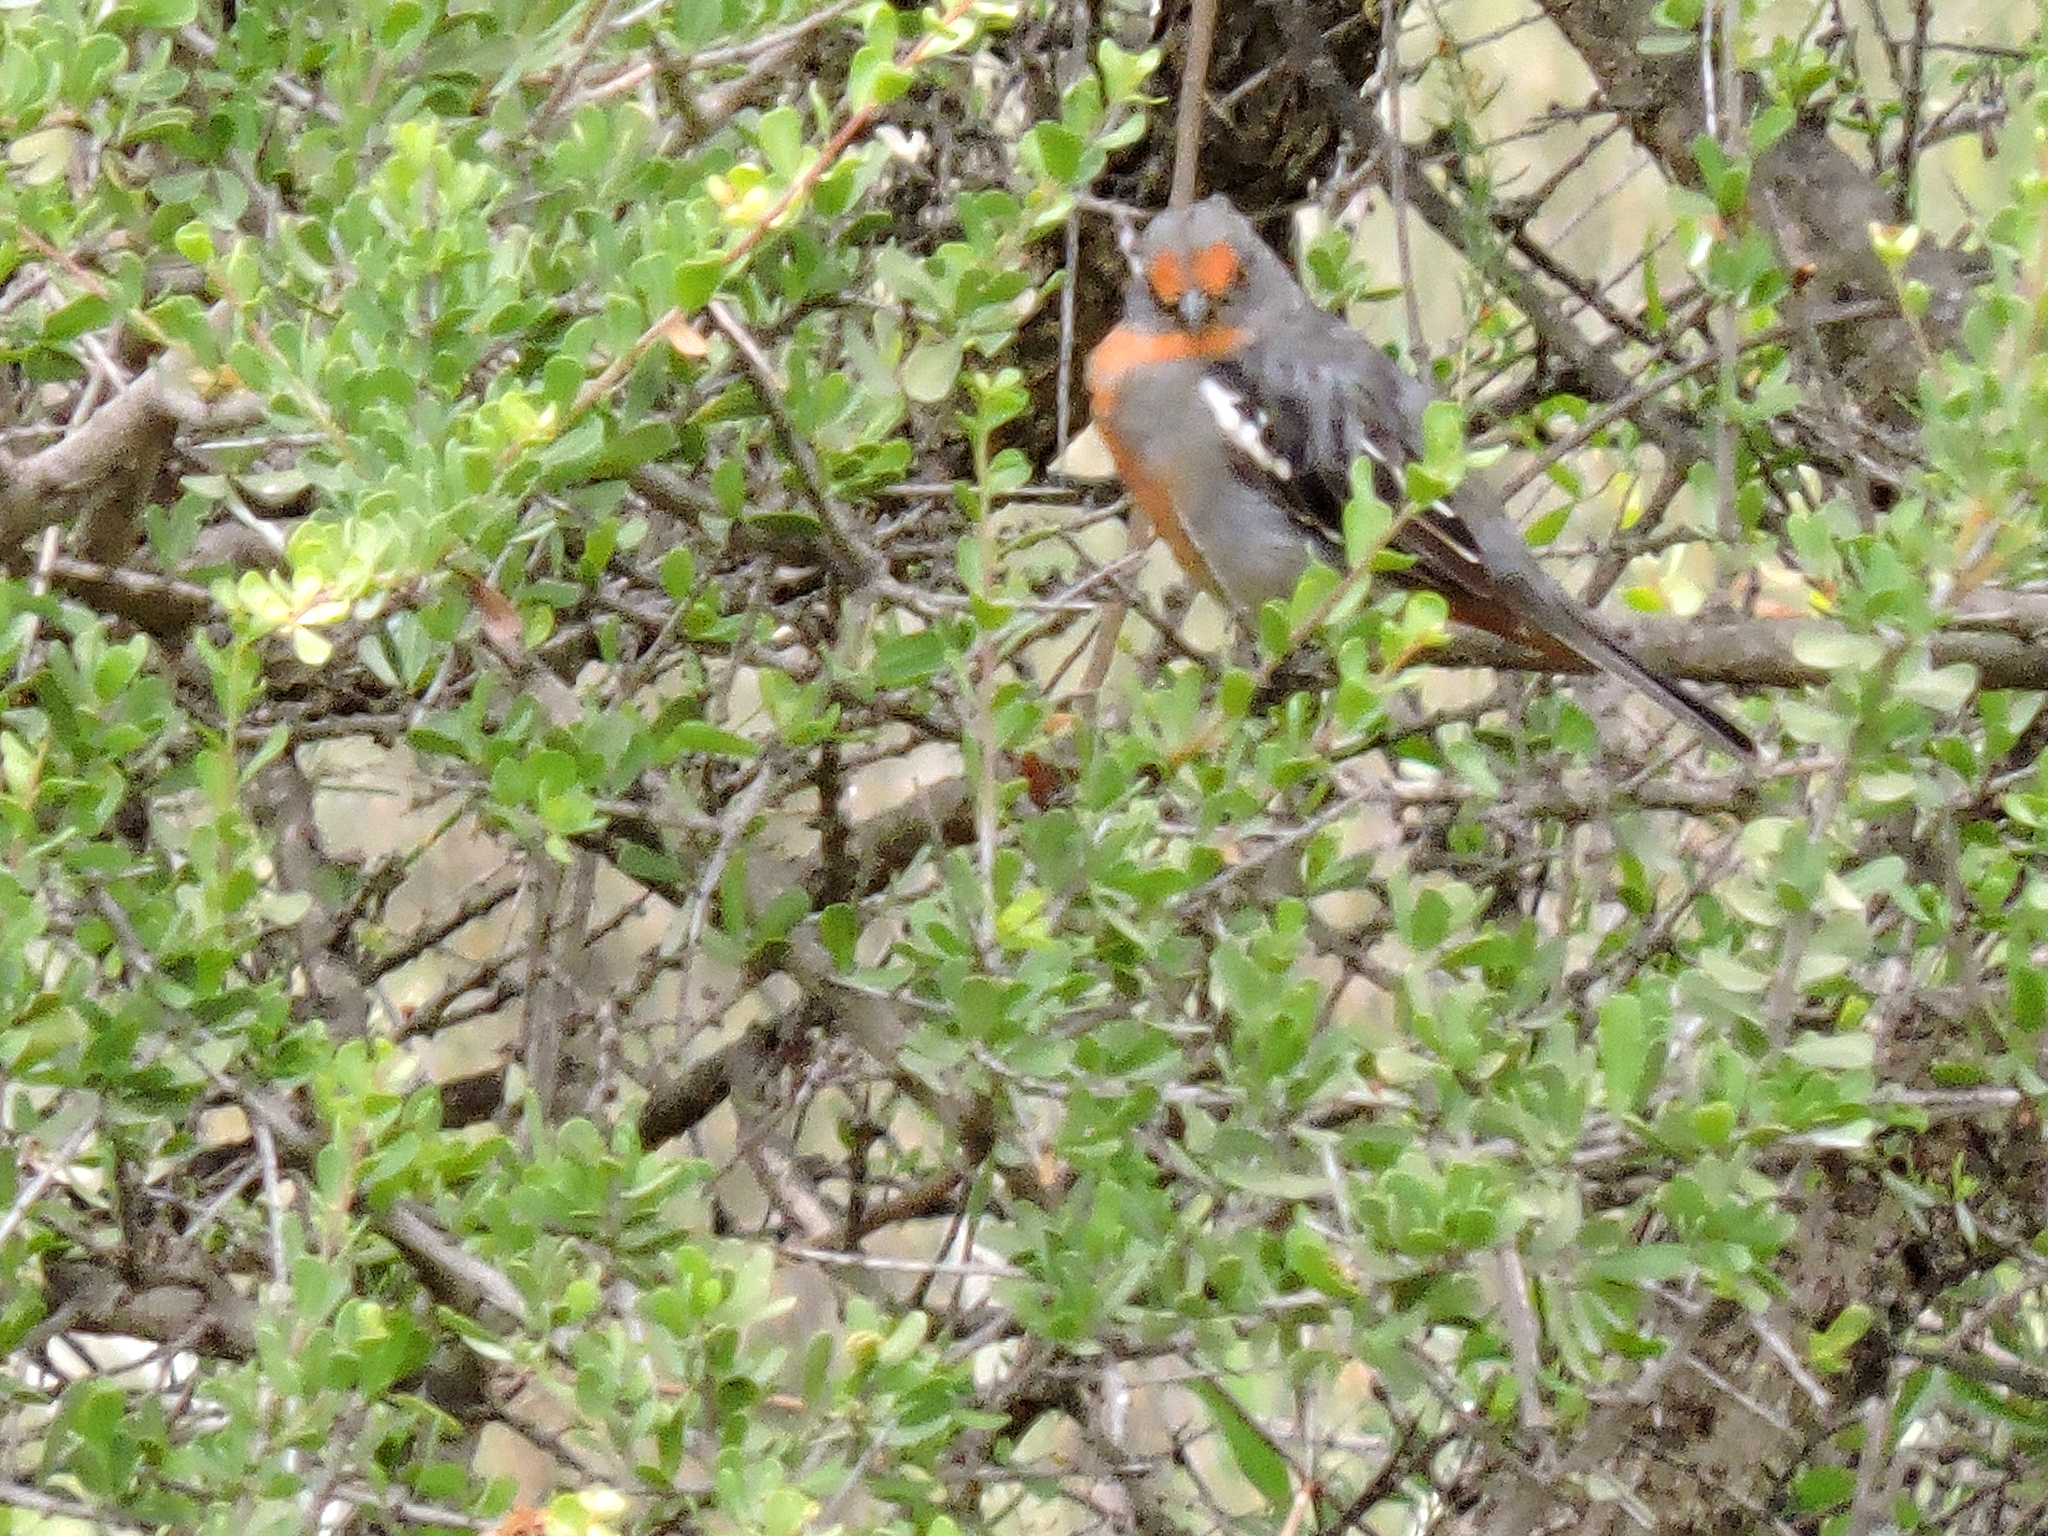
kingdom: Animalia
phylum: Chordata
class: Aves
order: Passeriformes
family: Cotingidae
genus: Phytotoma
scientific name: Phytotoma rutila
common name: White-tipped plantcutter
